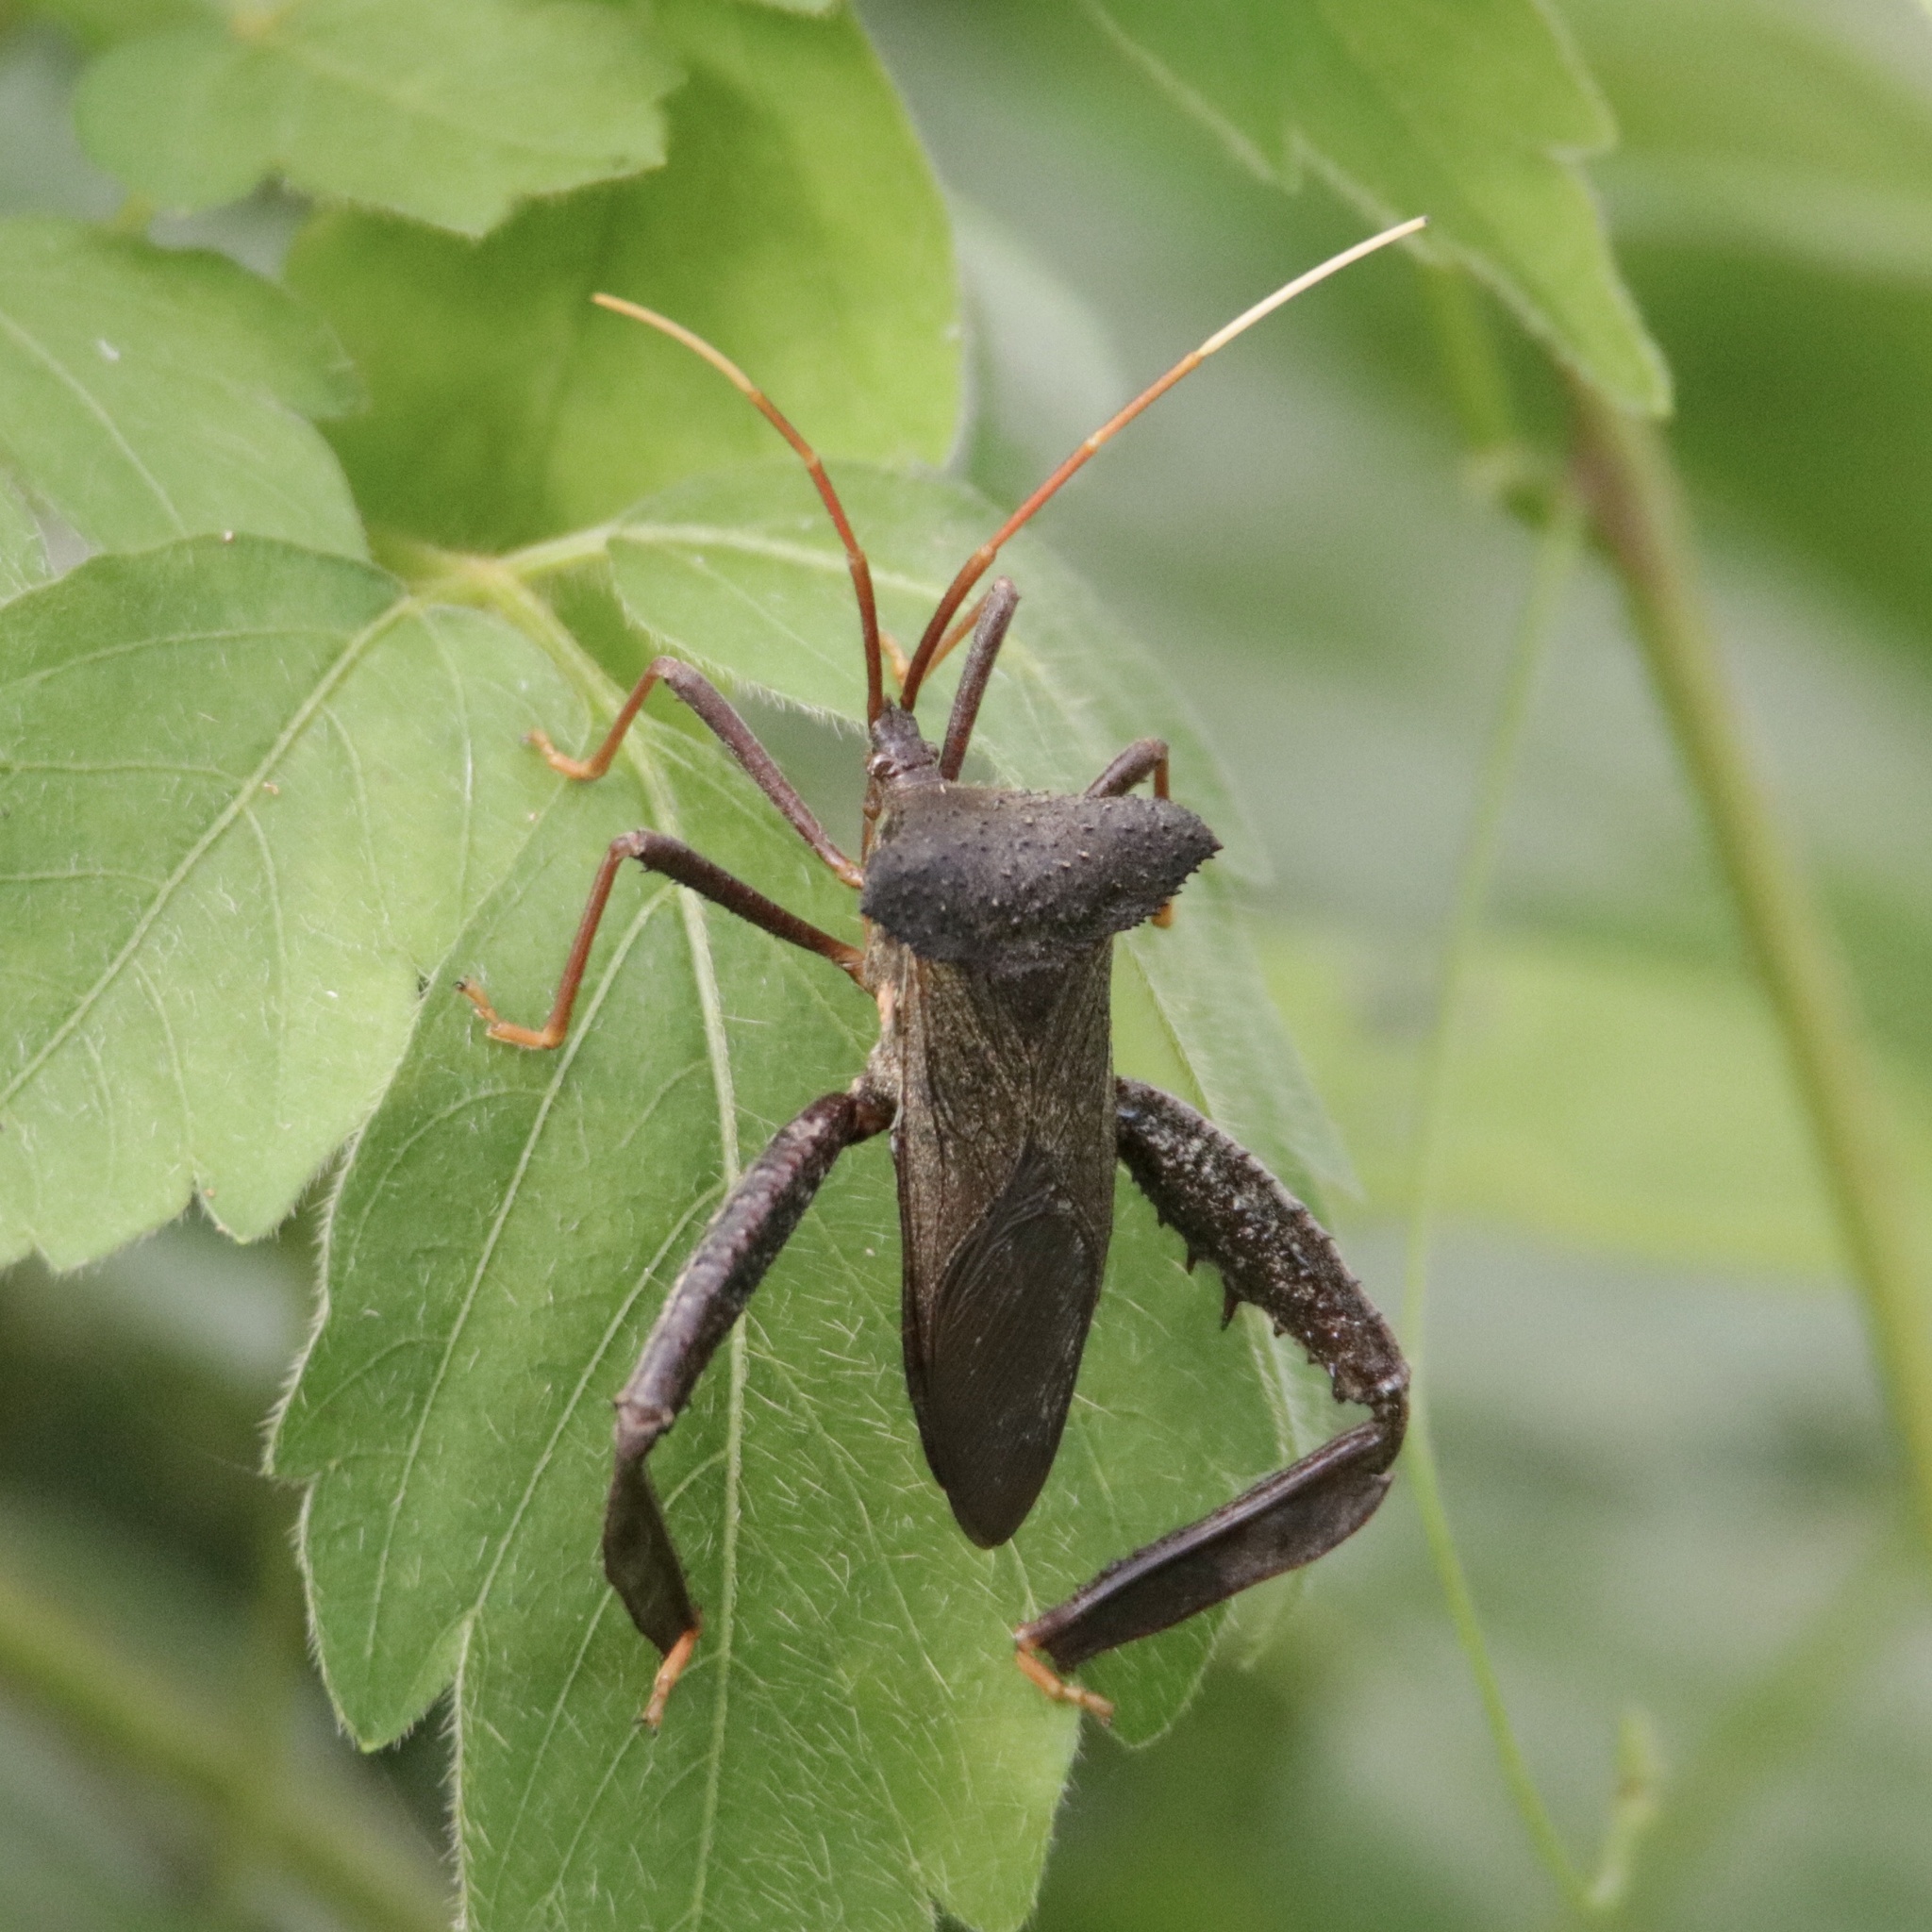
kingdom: Animalia
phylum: Arthropoda
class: Insecta
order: Hemiptera
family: Coreidae
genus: Acanthocephala
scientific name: Acanthocephala alata
